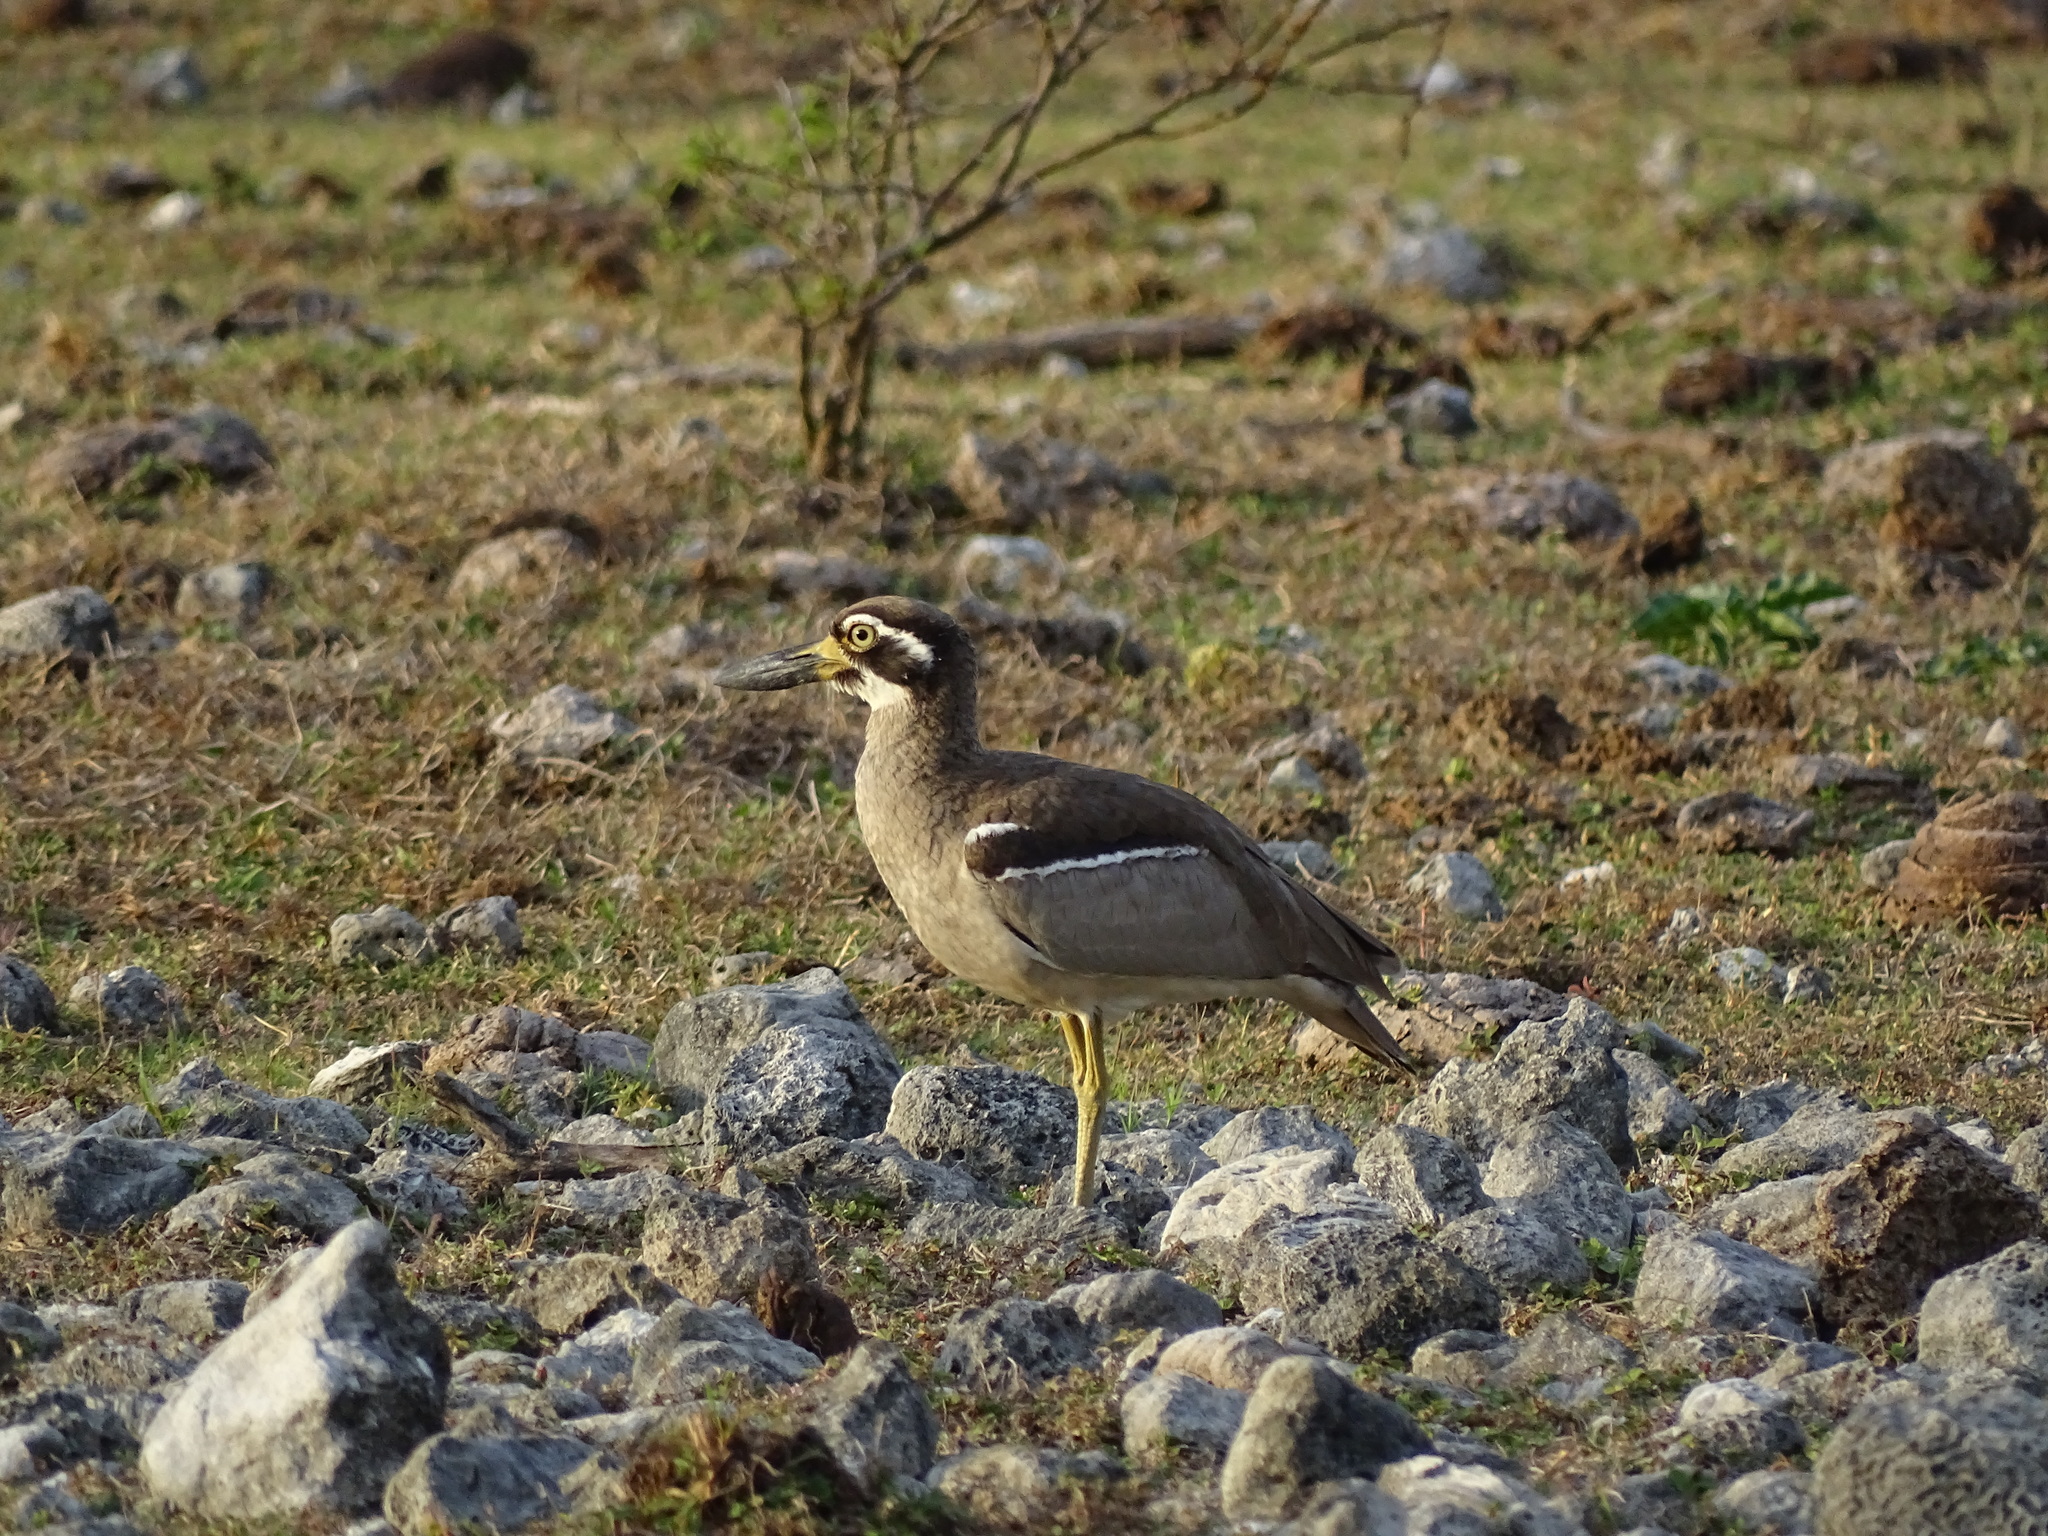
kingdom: Animalia
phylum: Chordata
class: Aves
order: Charadriiformes
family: Burhinidae
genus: Esacus
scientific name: Esacus magnirostris
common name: Beach stone-curlew
